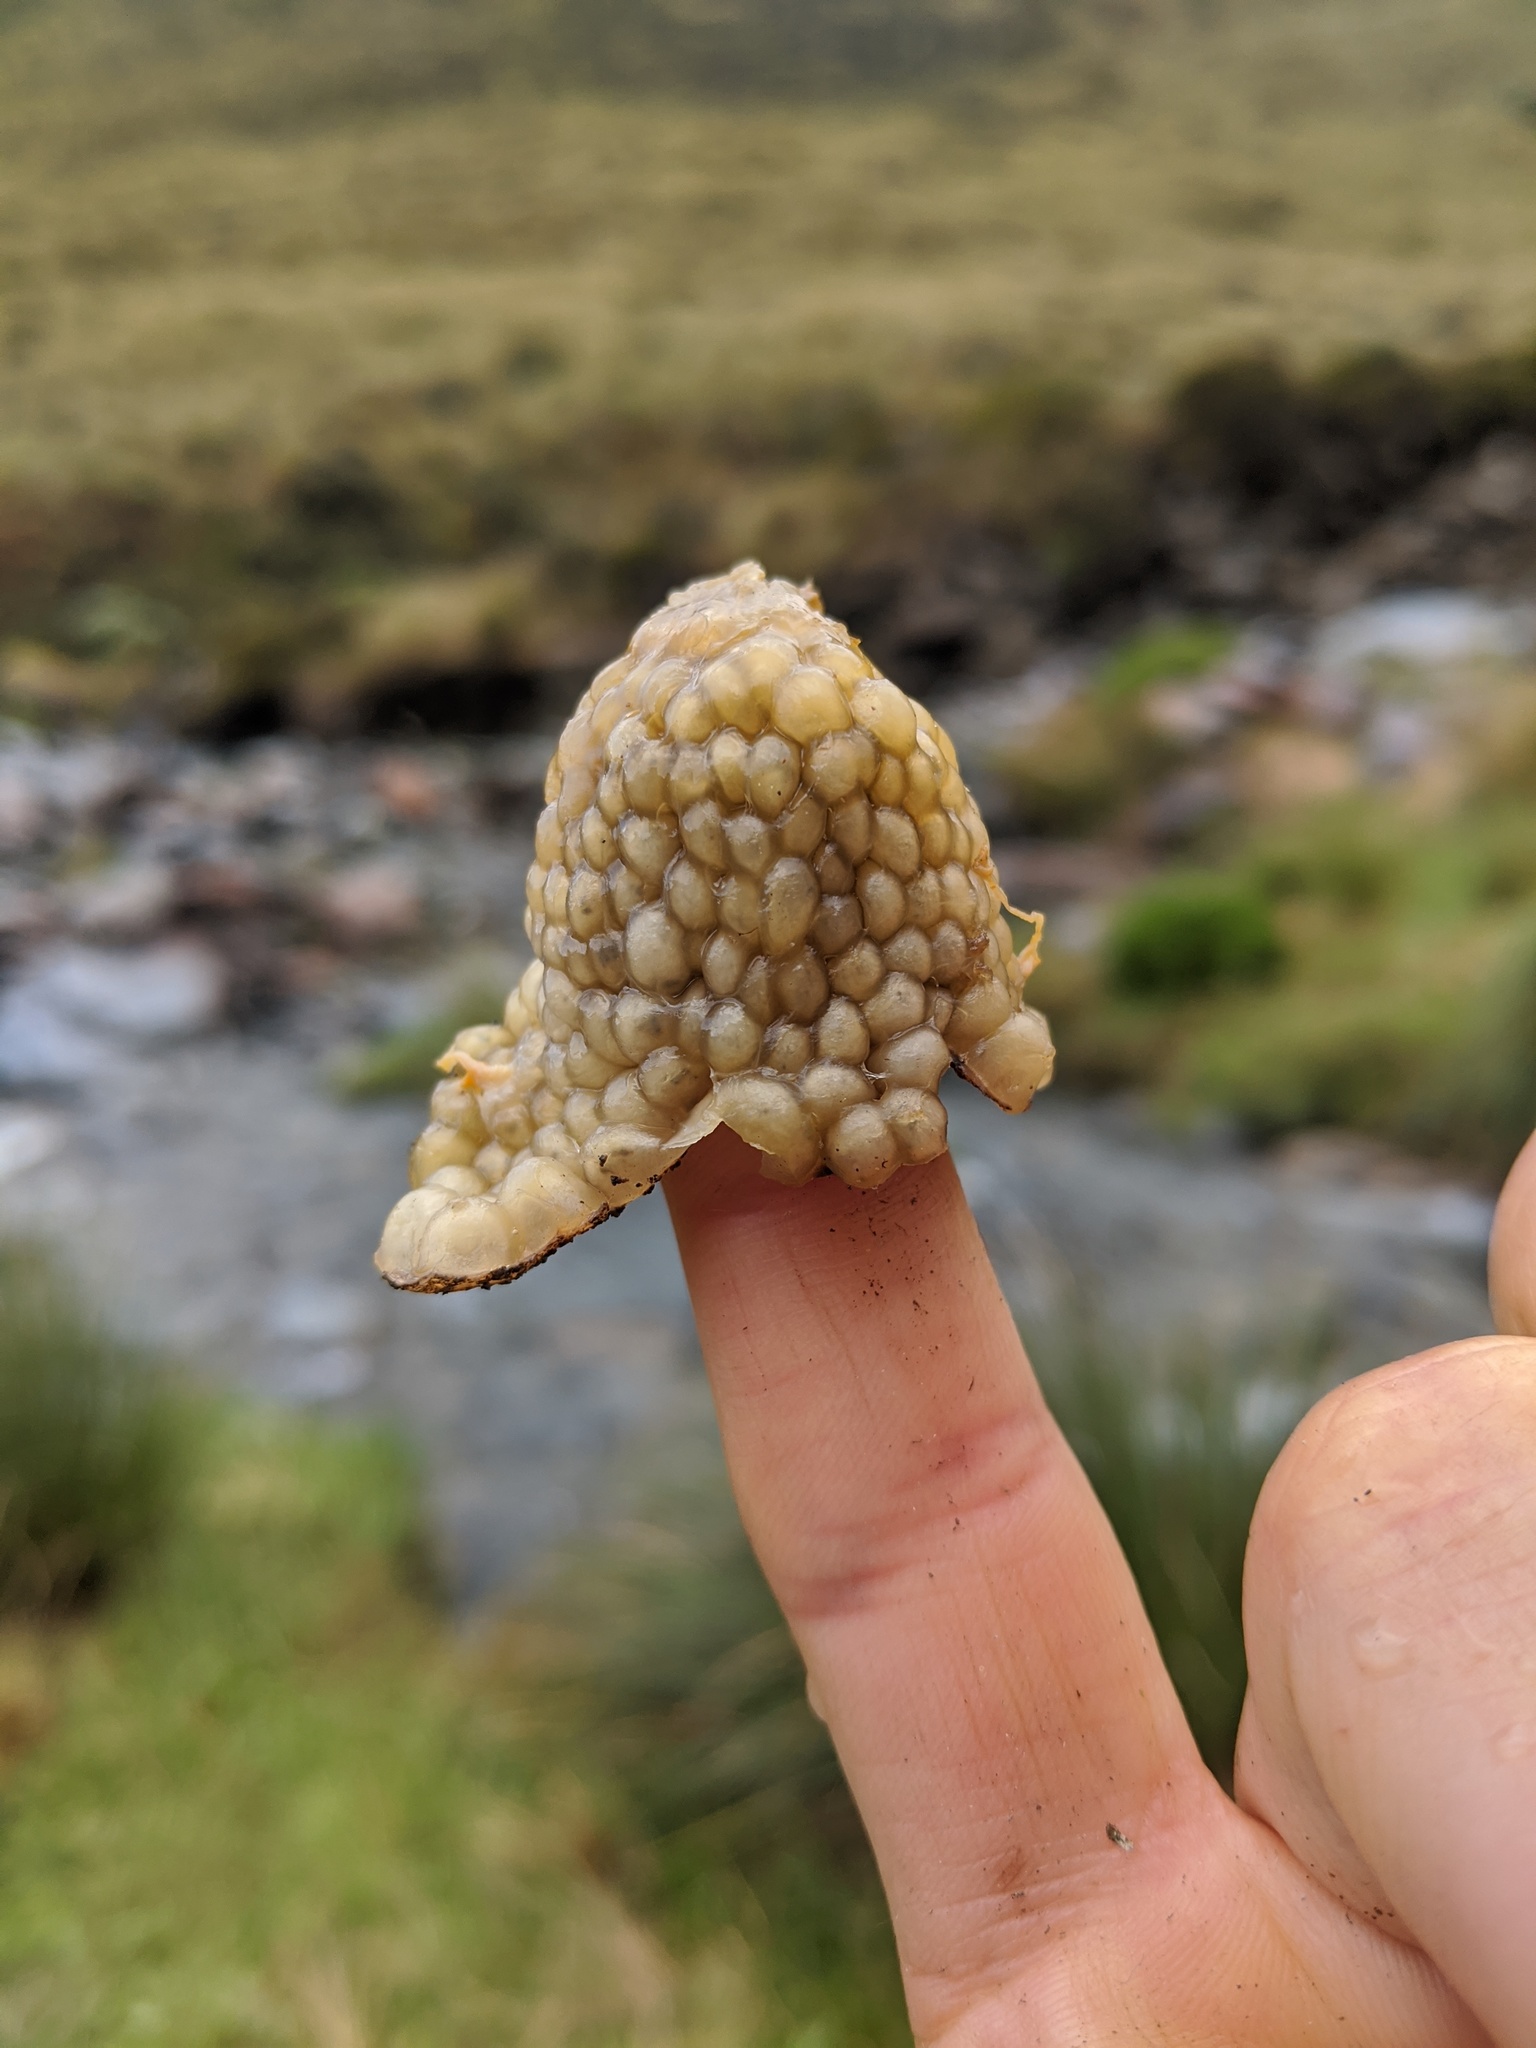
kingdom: Fungi
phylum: Ascomycota
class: Leotiomycetes
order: Cyttariales
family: Cyttariaceae
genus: Cyttaria
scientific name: Cyttaria nigra
